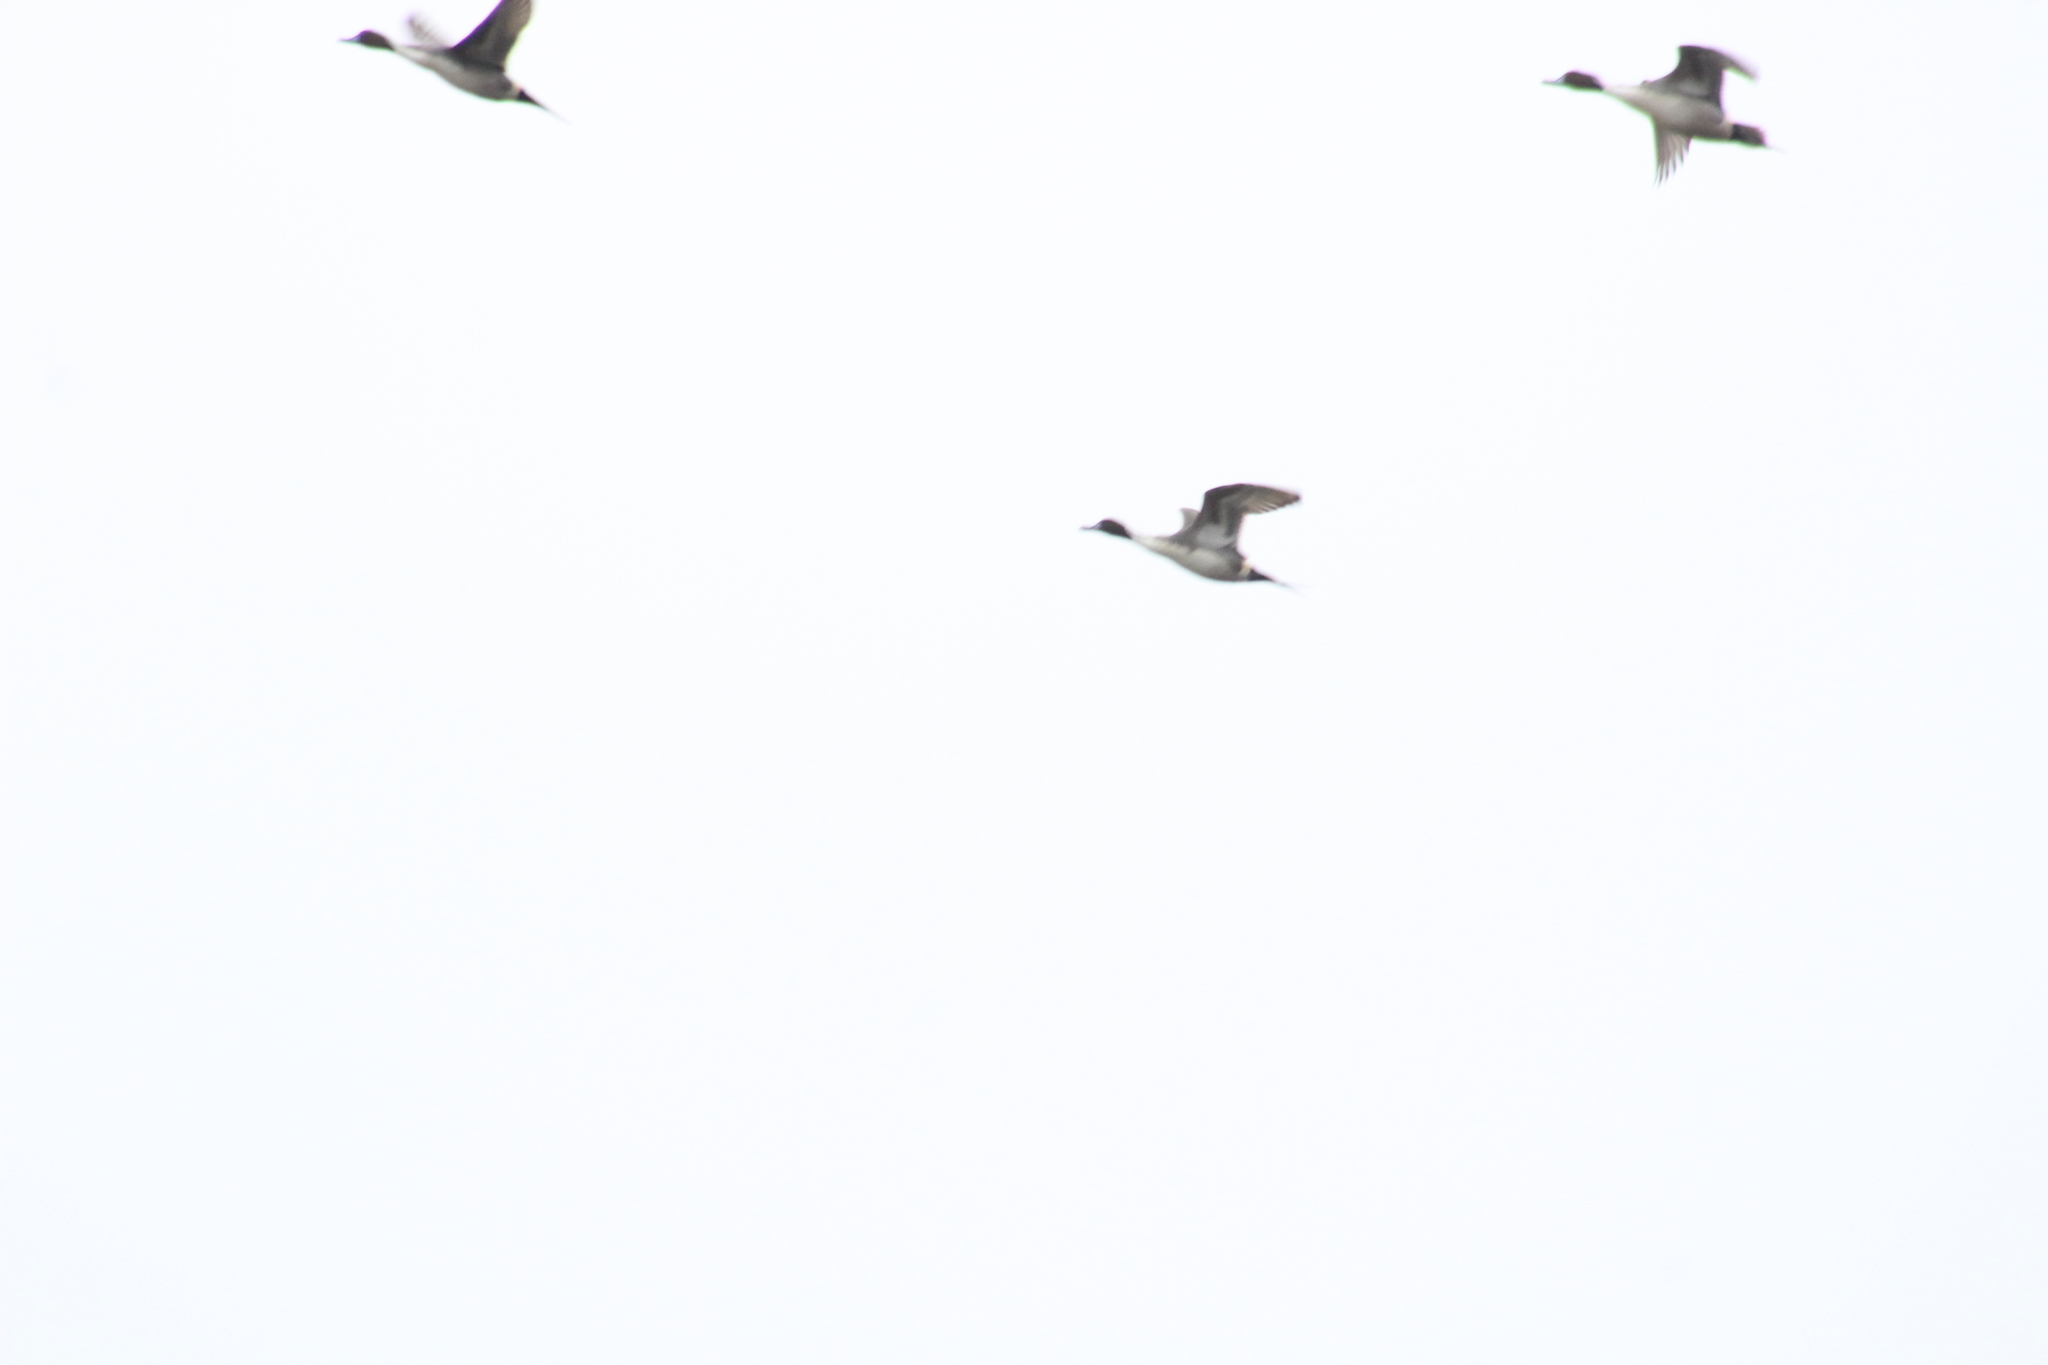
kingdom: Animalia
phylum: Chordata
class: Aves
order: Anseriformes
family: Anatidae
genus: Anas
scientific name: Anas acuta
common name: Northern pintail
